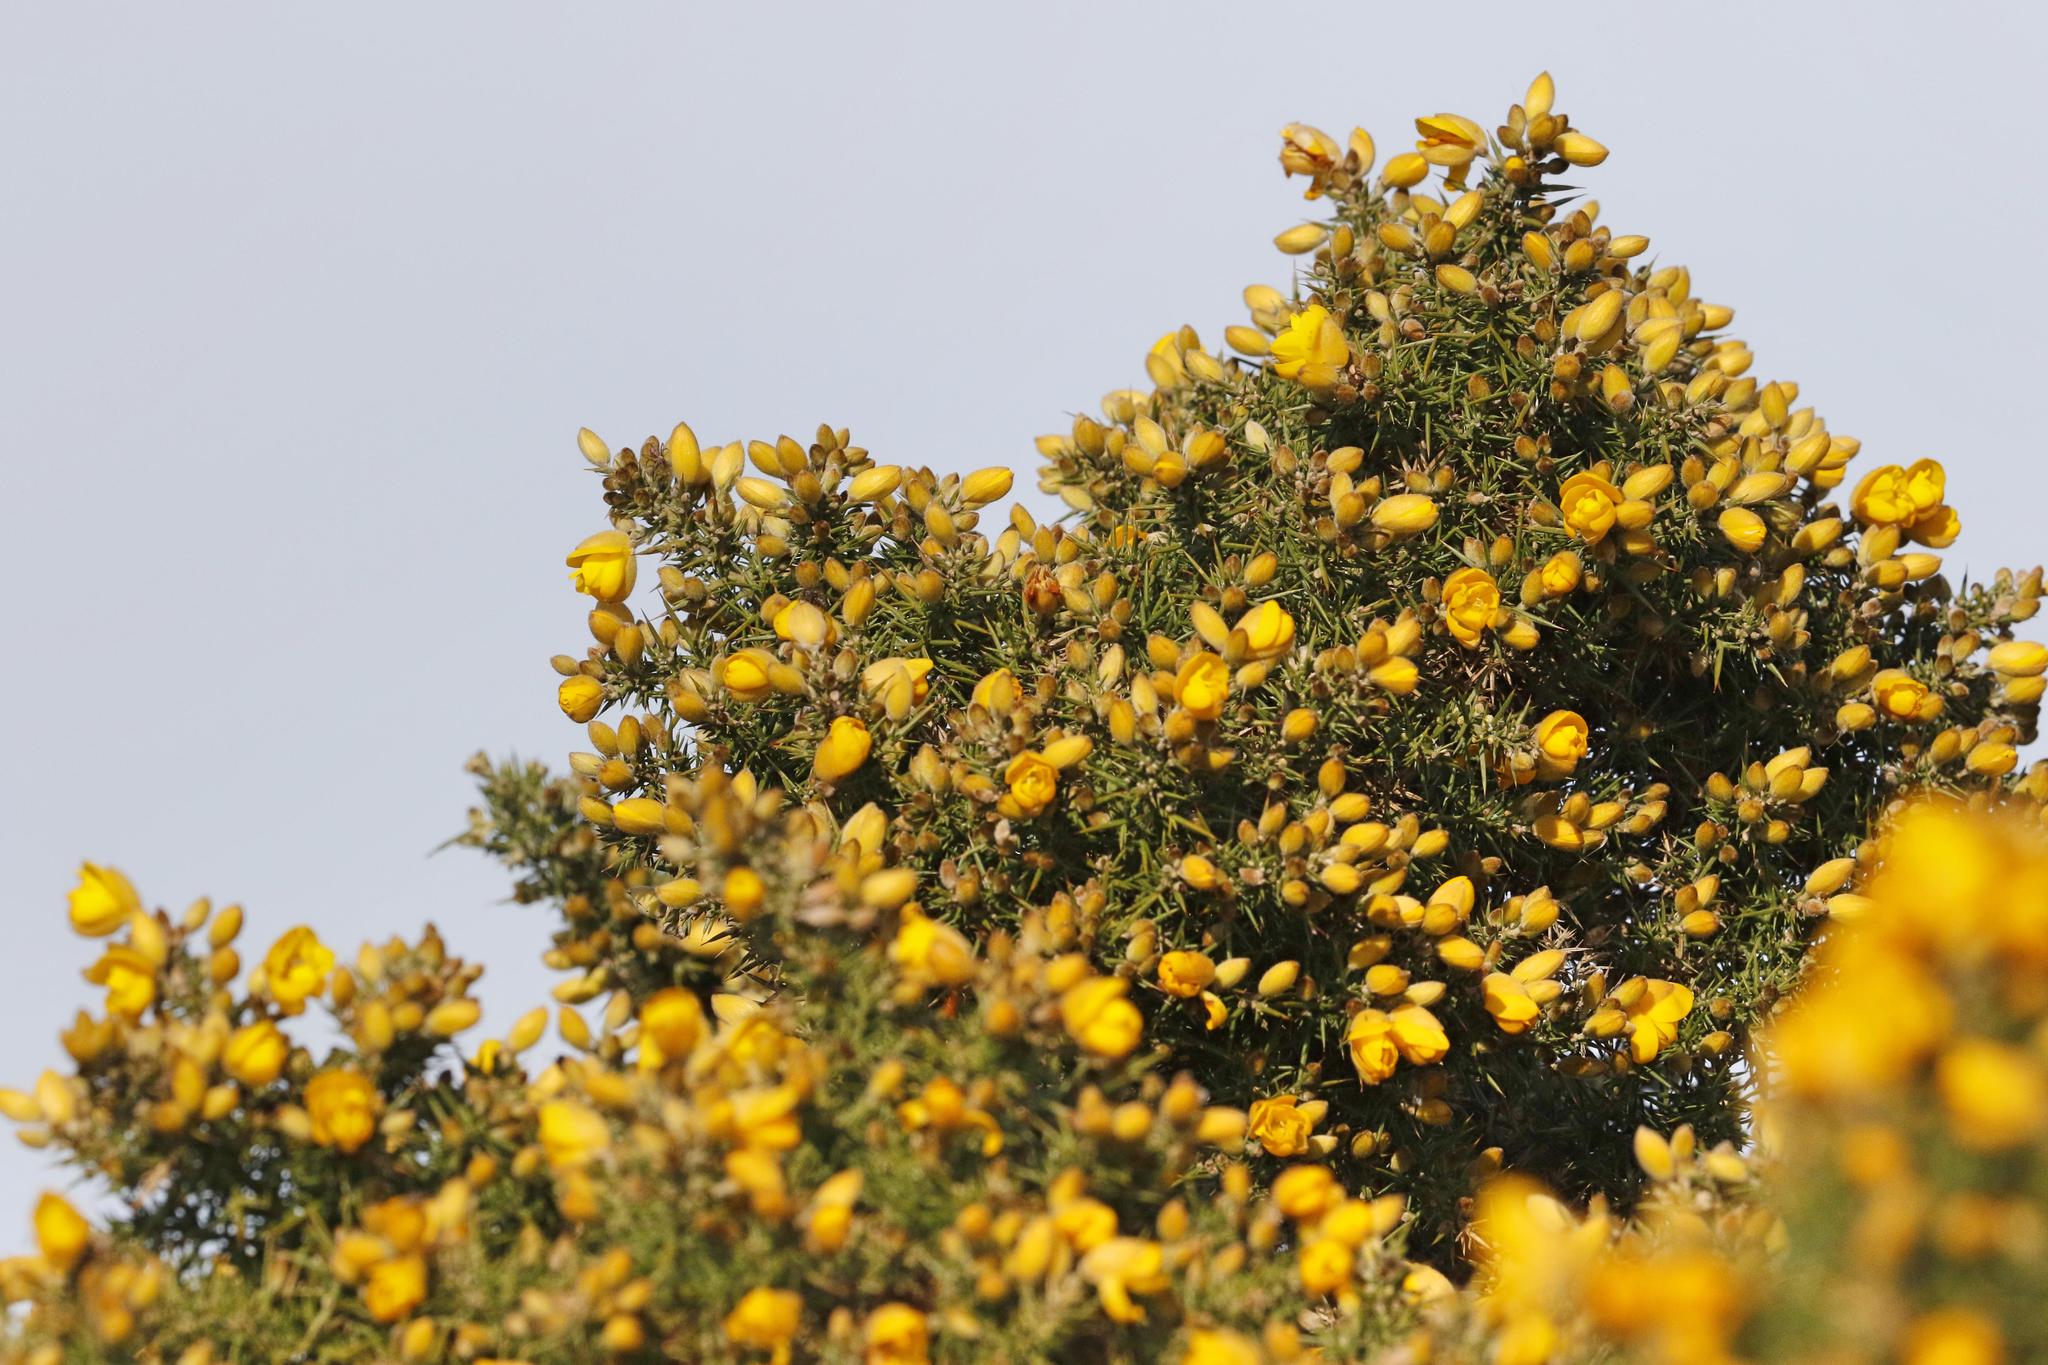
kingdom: Plantae
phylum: Tracheophyta
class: Magnoliopsida
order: Fabales
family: Fabaceae
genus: Ulex
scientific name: Ulex europaeus
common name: Common gorse
